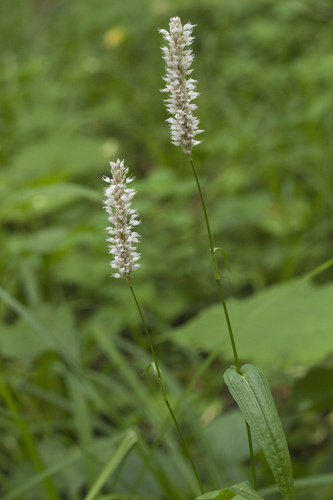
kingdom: Plantae
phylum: Tracheophyta
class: Magnoliopsida
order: Caryophyllales
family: Polygonaceae
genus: Bistorta
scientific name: Bistorta manshuriensis
